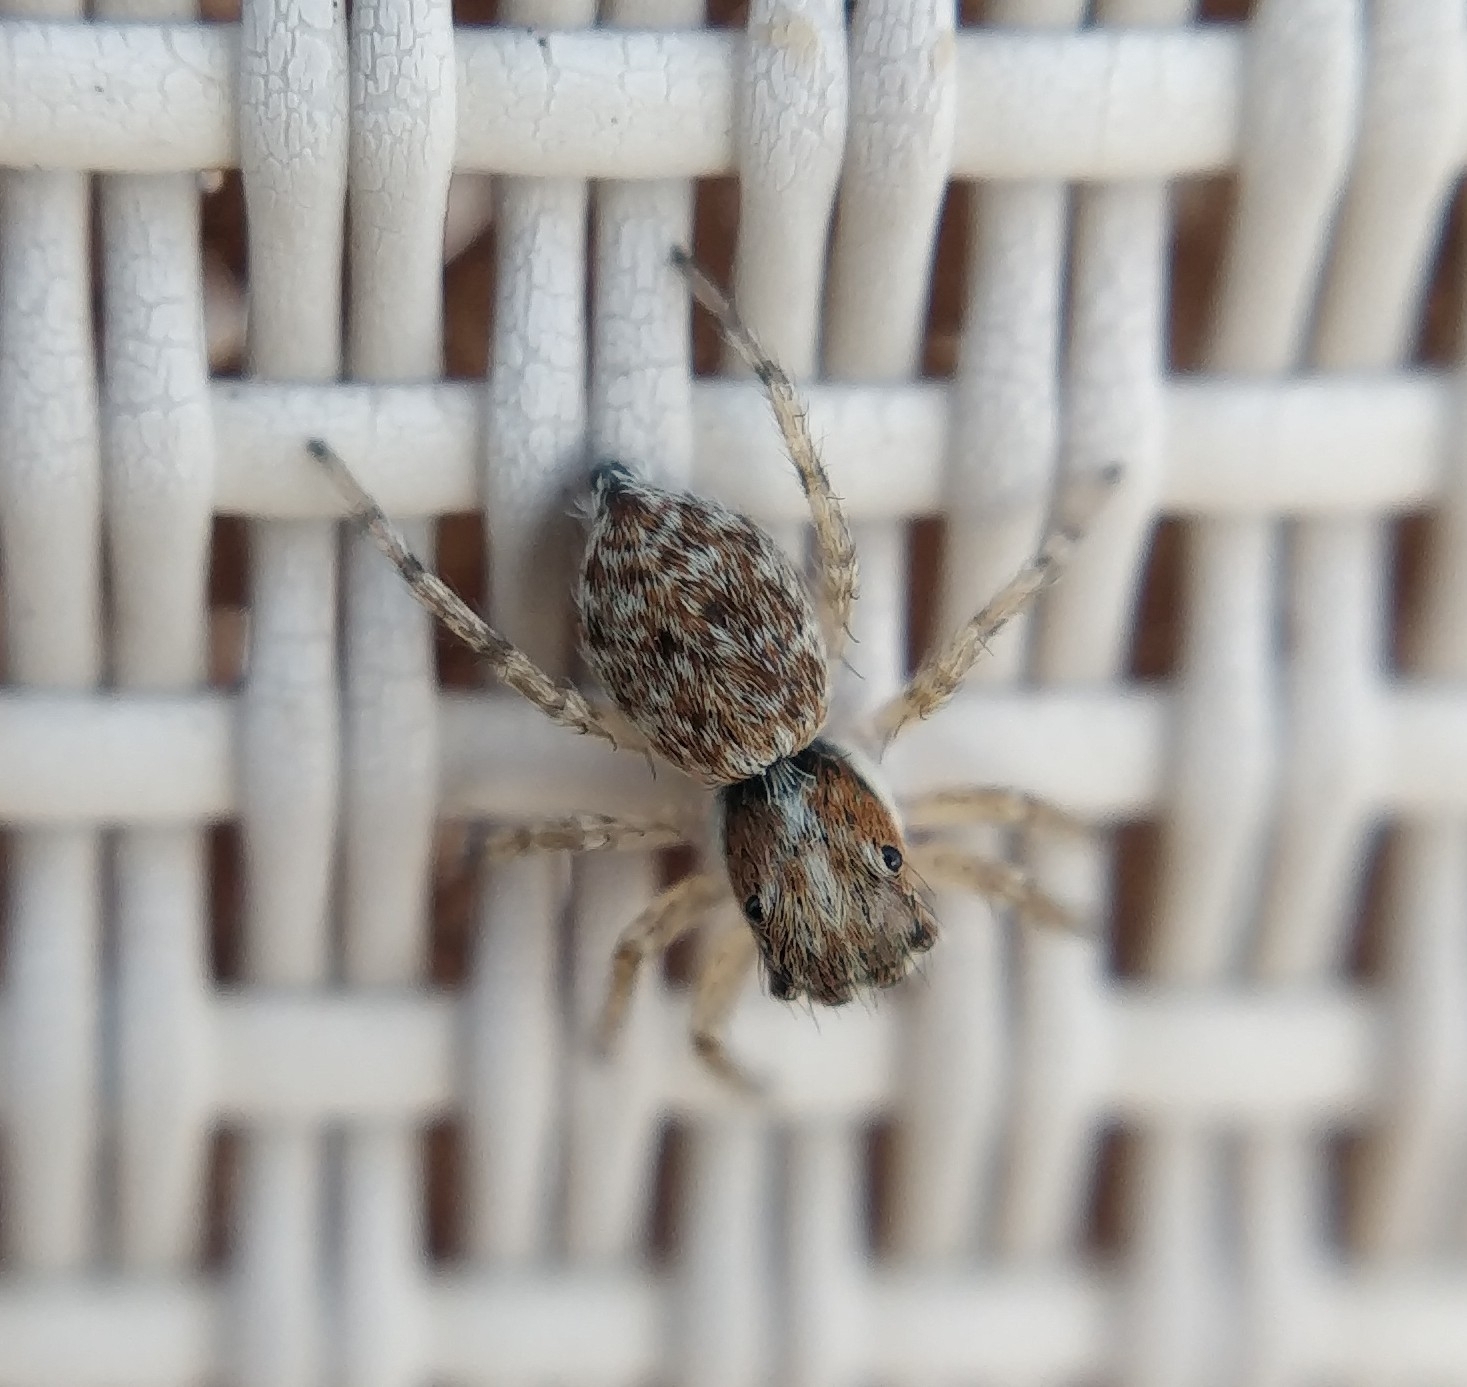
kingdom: Animalia
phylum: Arthropoda
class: Arachnida
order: Araneae
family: Salticidae
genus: Menemerus
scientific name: Menemerus semilimbatus
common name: Jumping spider
